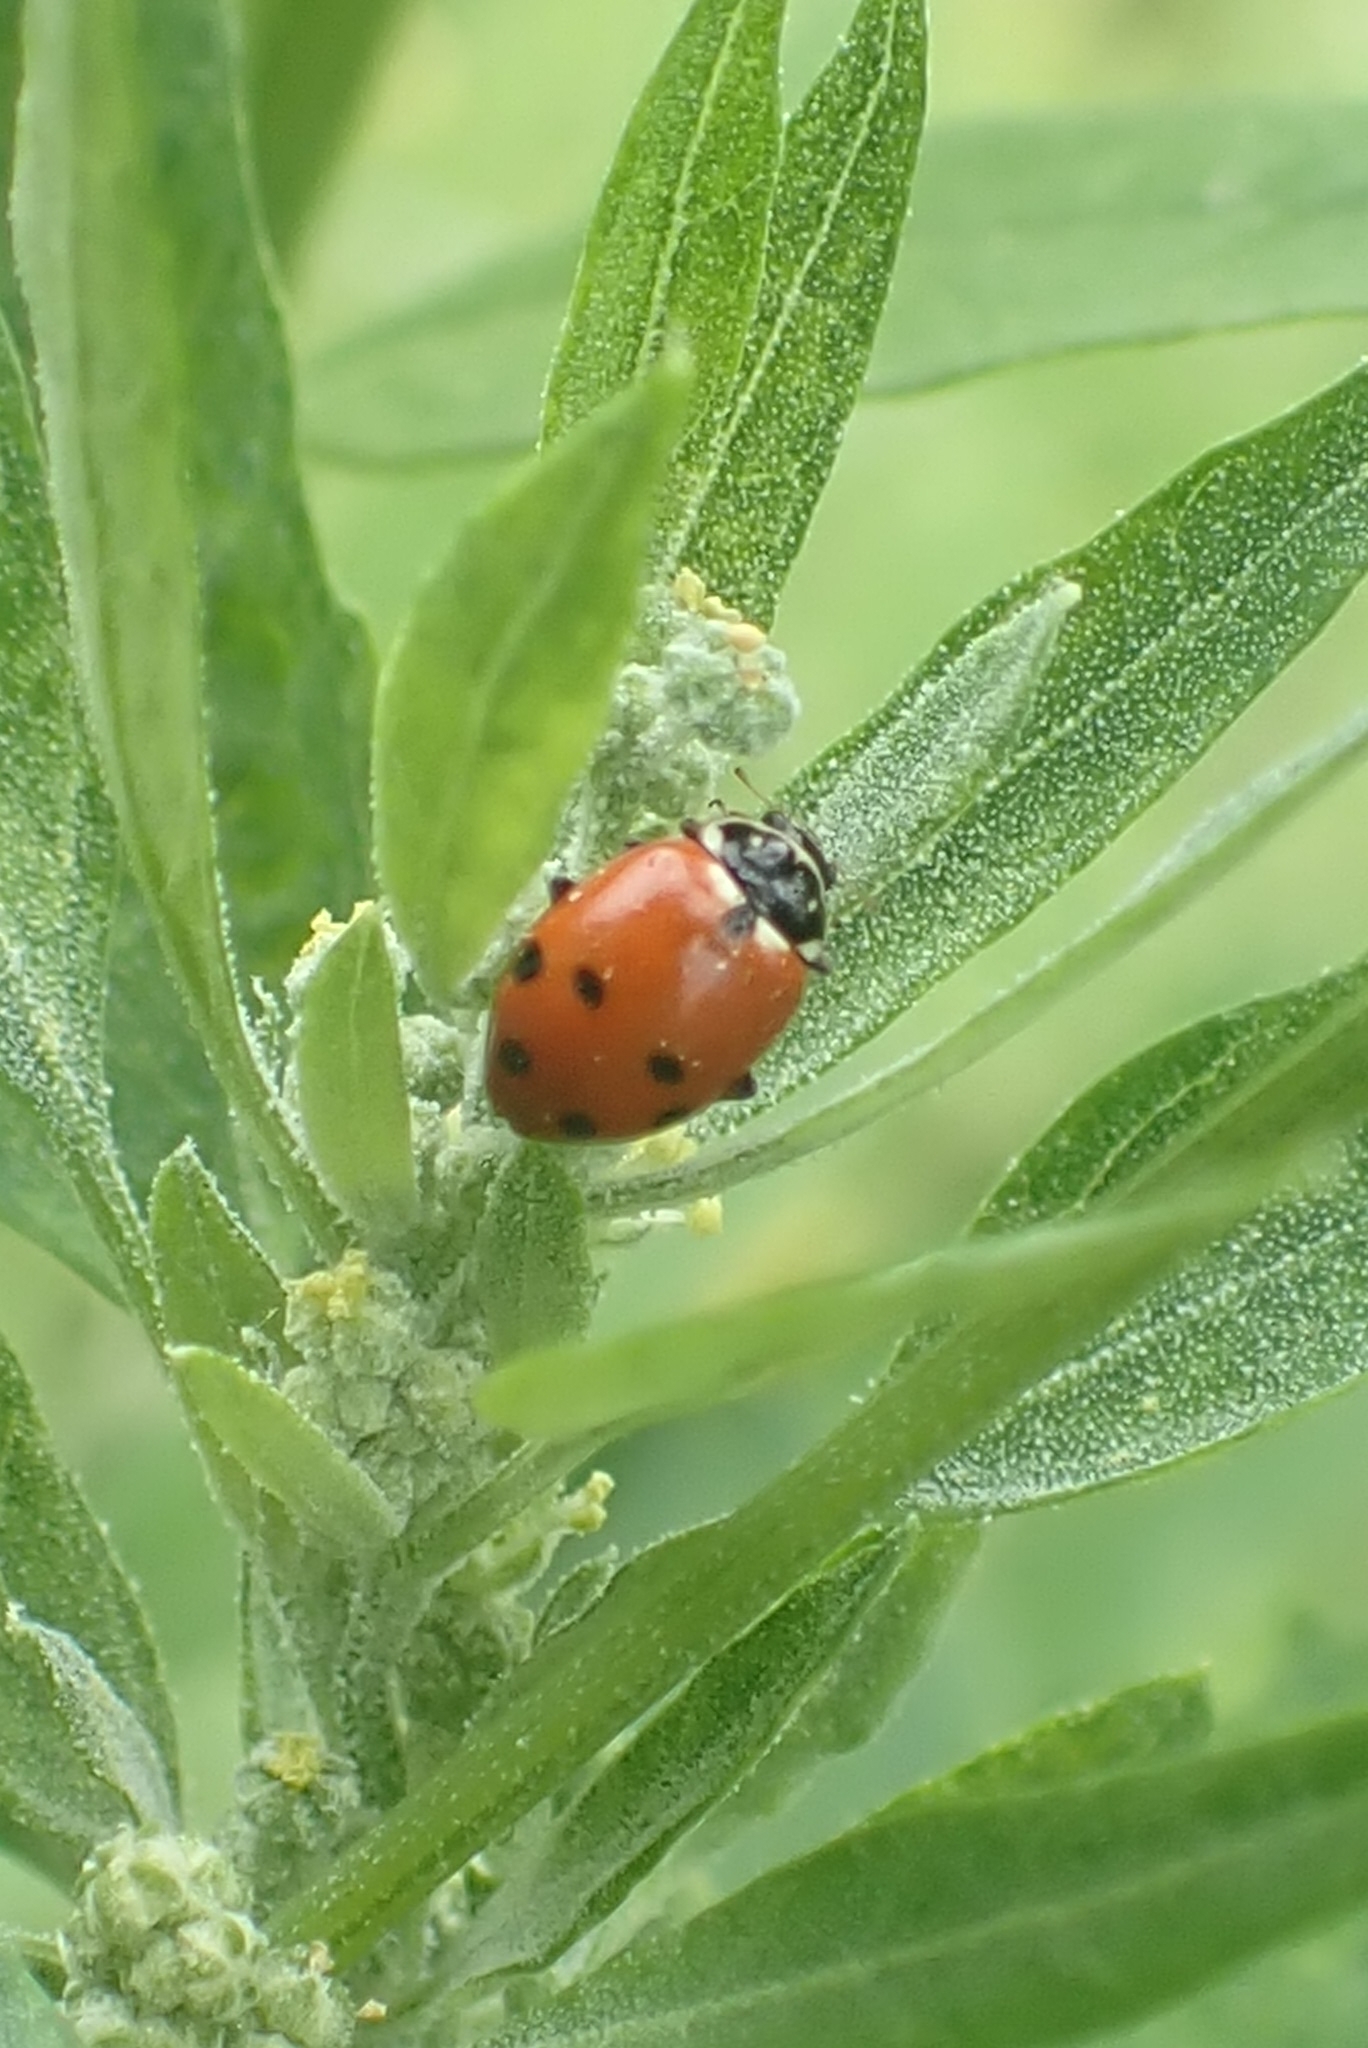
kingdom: Animalia
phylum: Arthropoda
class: Insecta
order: Coleoptera
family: Coccinellidae
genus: Hippodamia
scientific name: Hippodamia variegata
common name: Ladybird beetle
